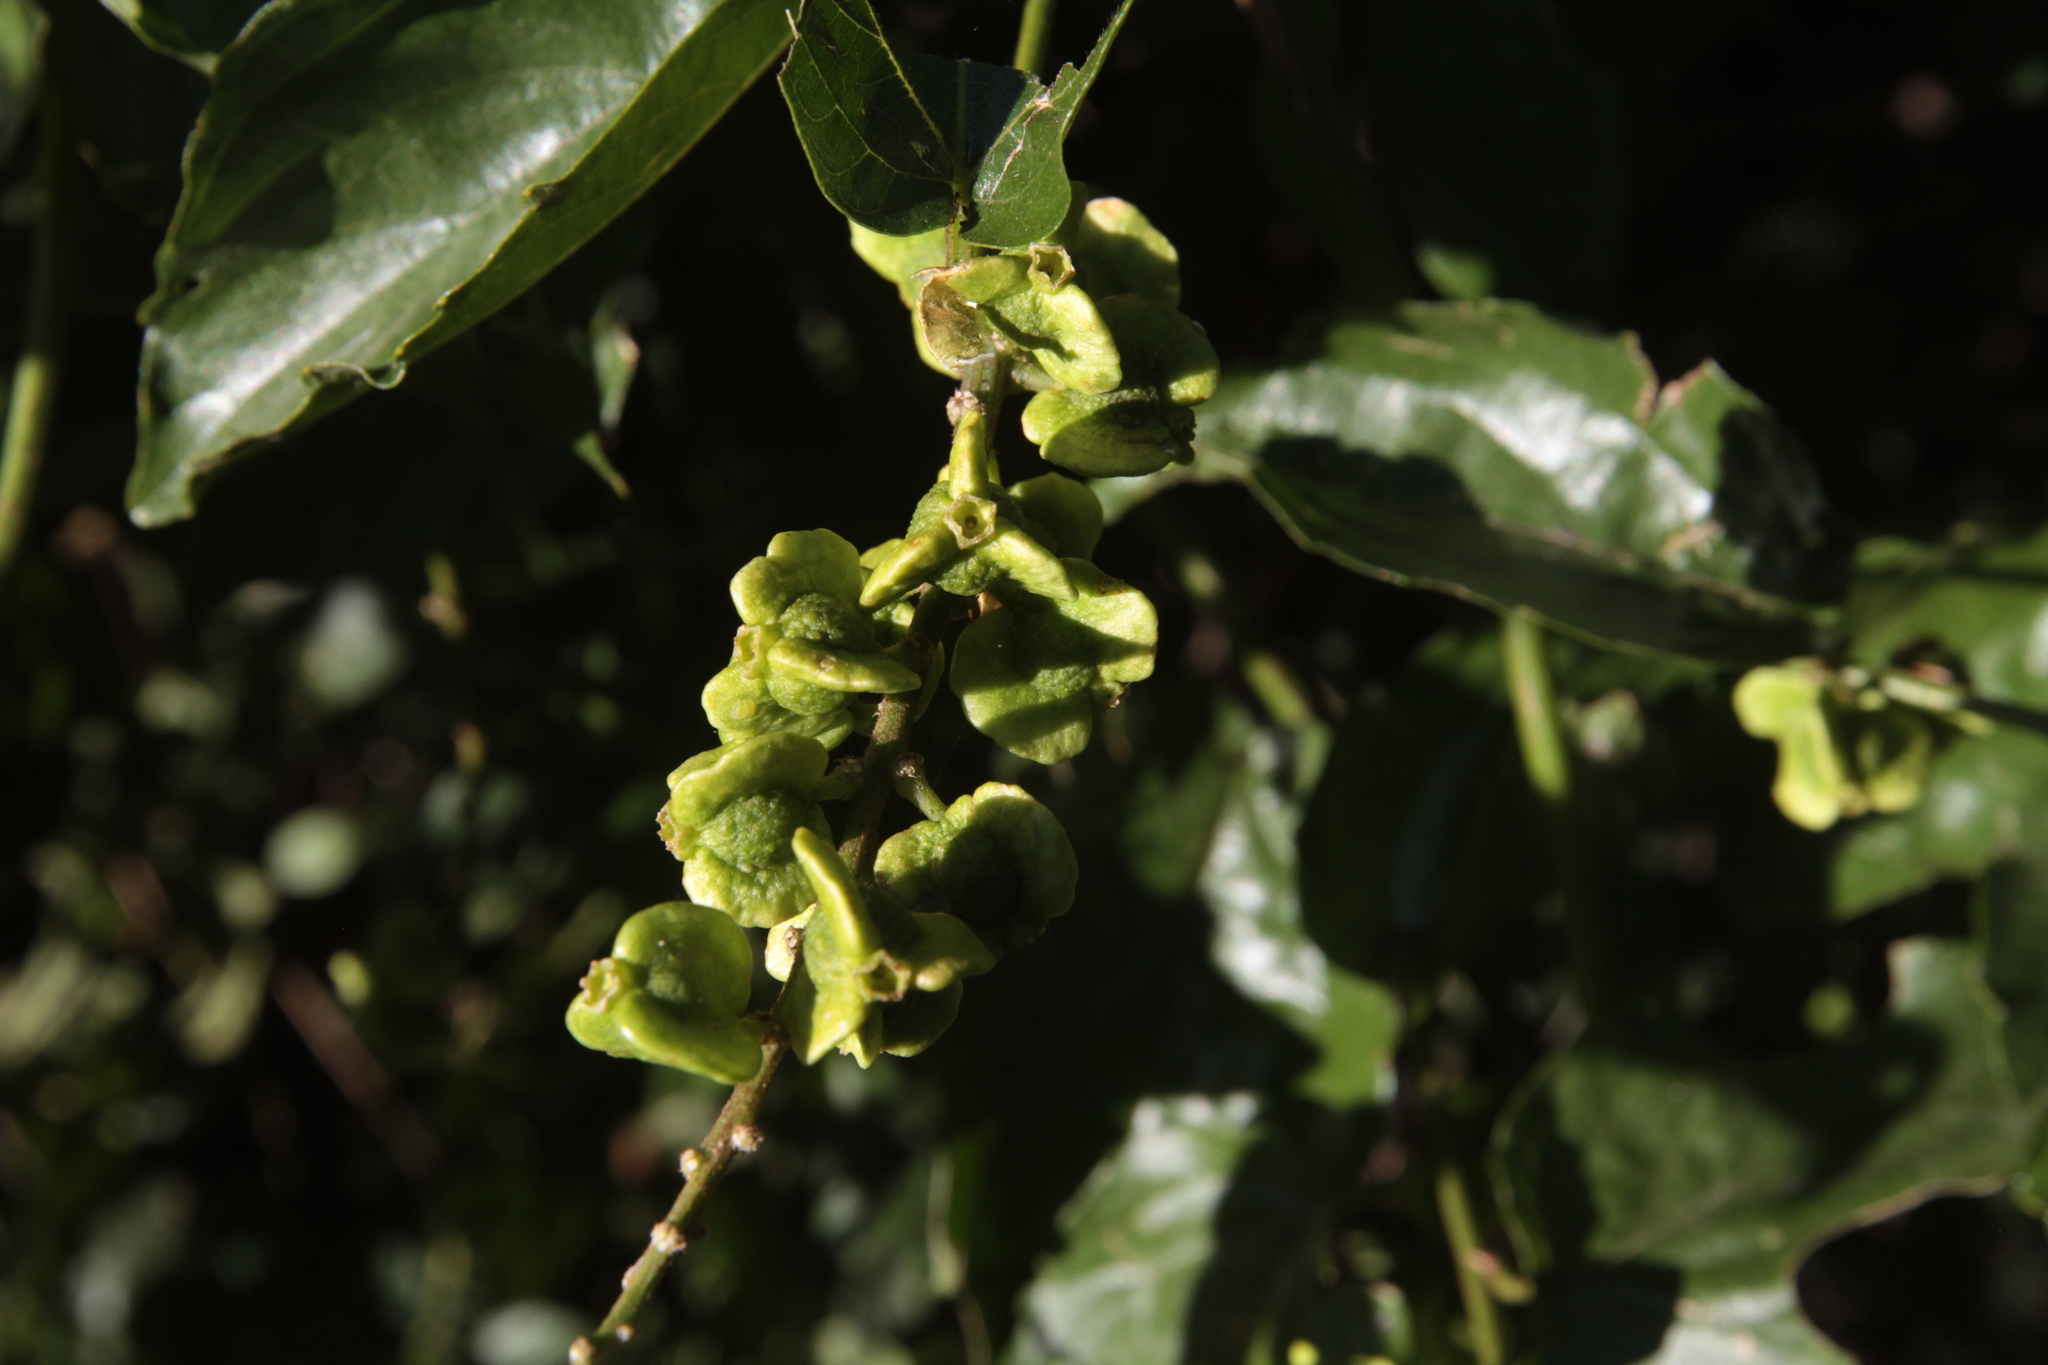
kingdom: Plantae
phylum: Tracheophyta
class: Magnoliopsida
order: Rosales
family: Rhamnaceae
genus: Gouania
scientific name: Gouania lupuloides
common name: Chewstick
